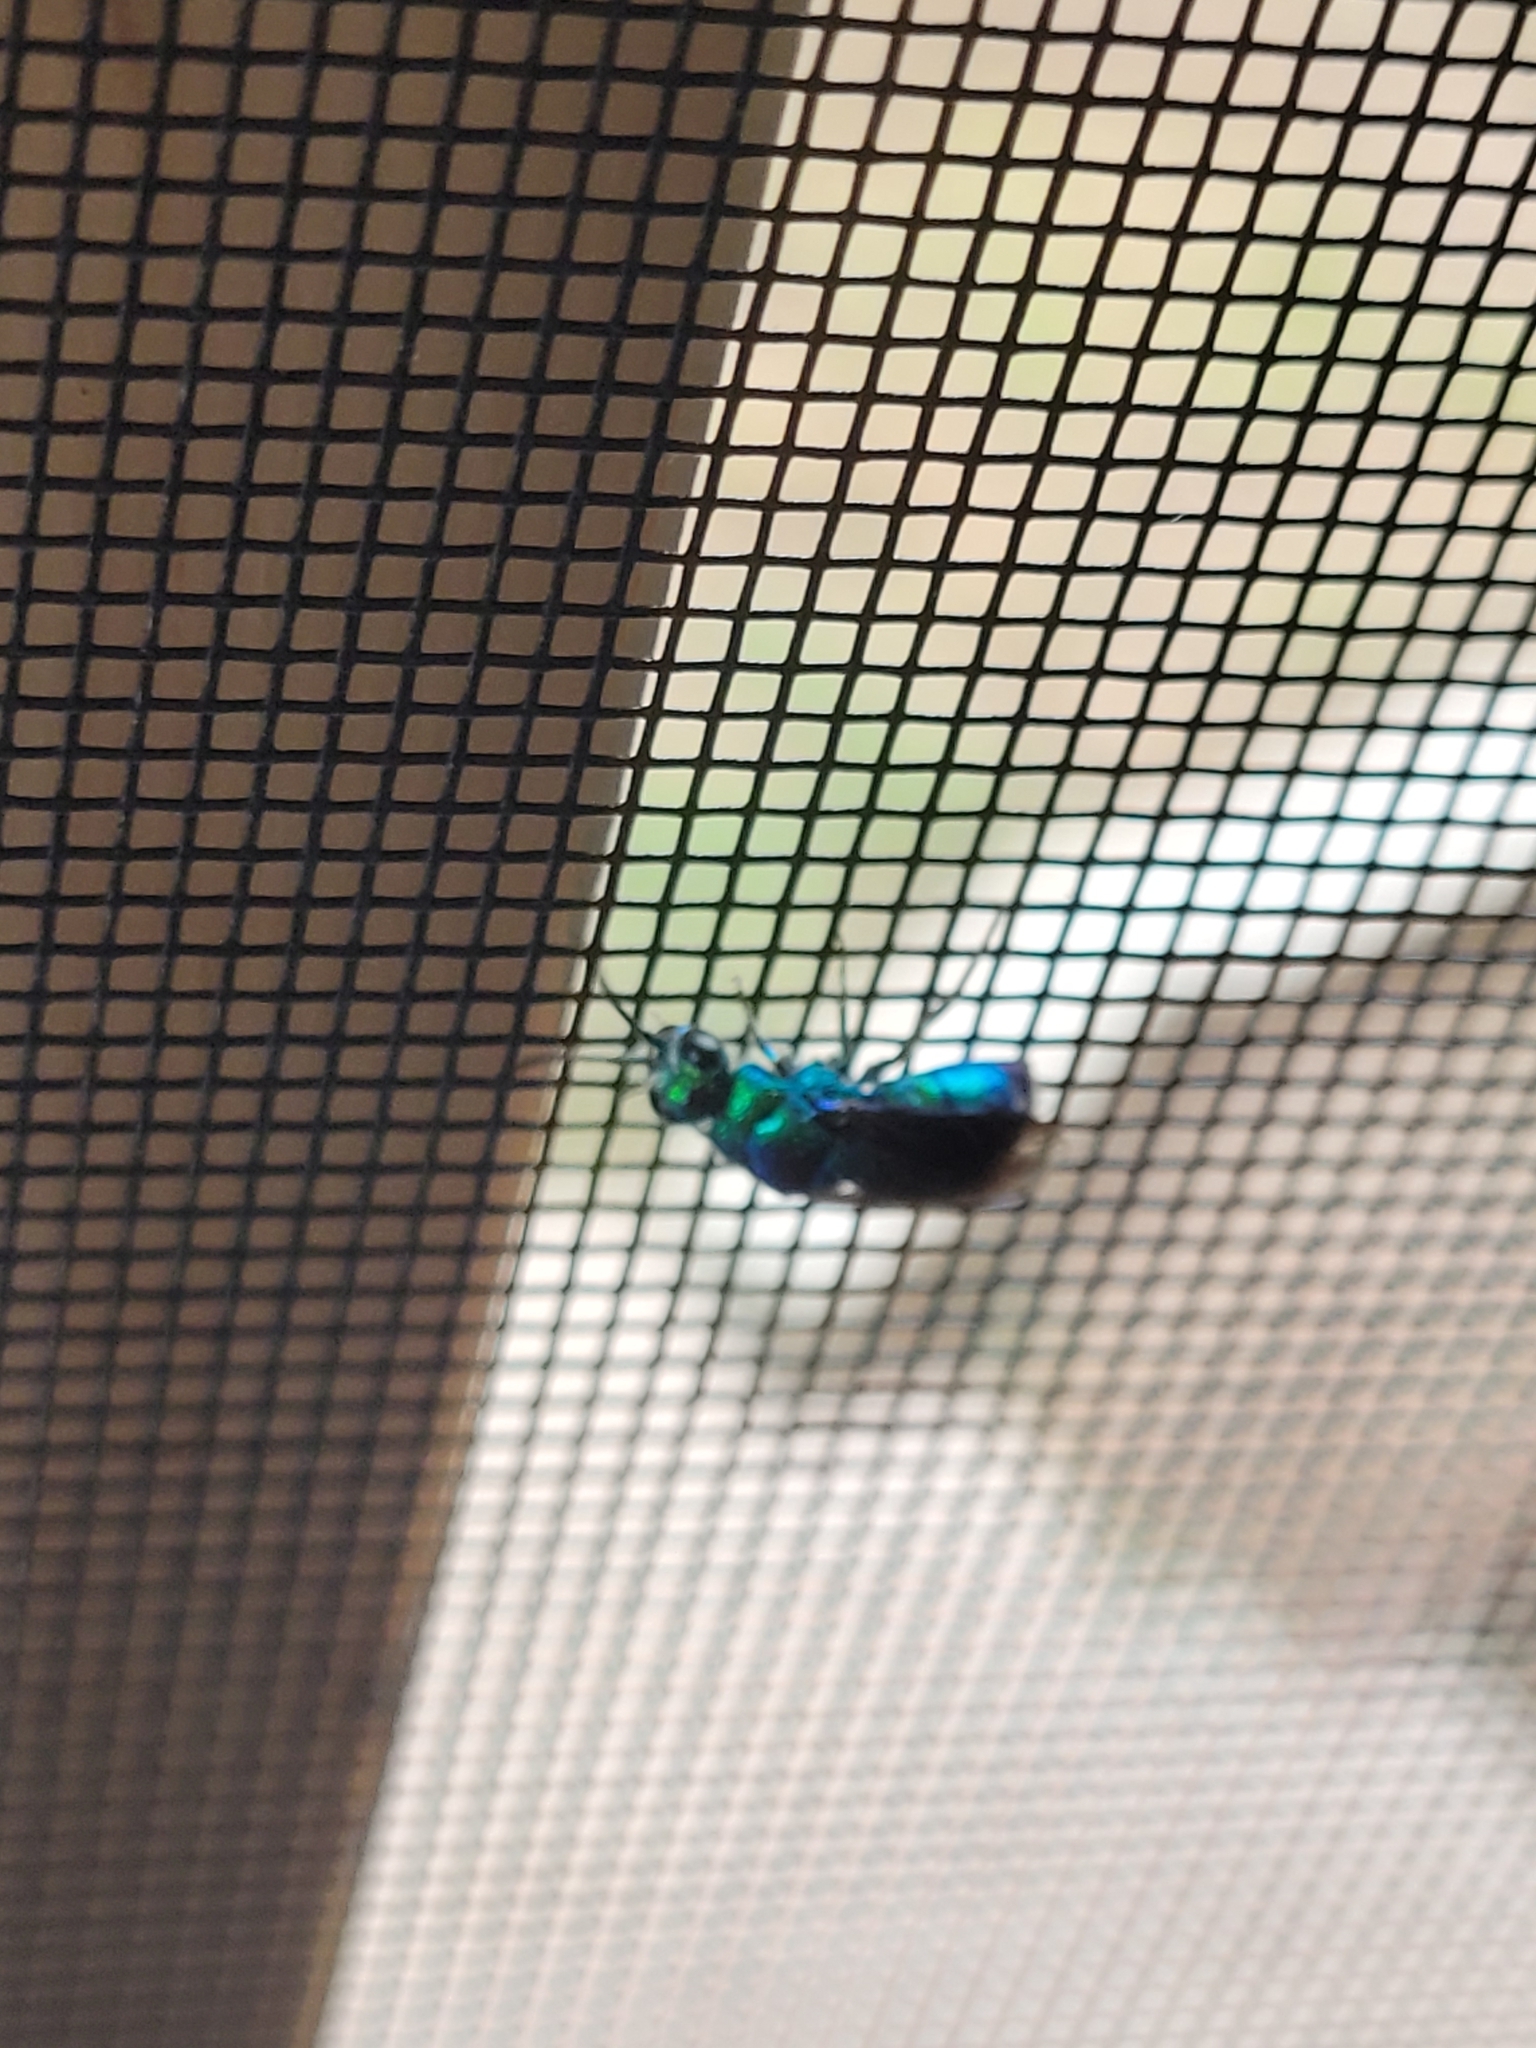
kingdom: Animalia
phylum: Arthropoda
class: Insecta
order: Hymenoptera
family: Chrysididae
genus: Chrysis
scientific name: Chrysis angolensis
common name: Cuckoo wasp
